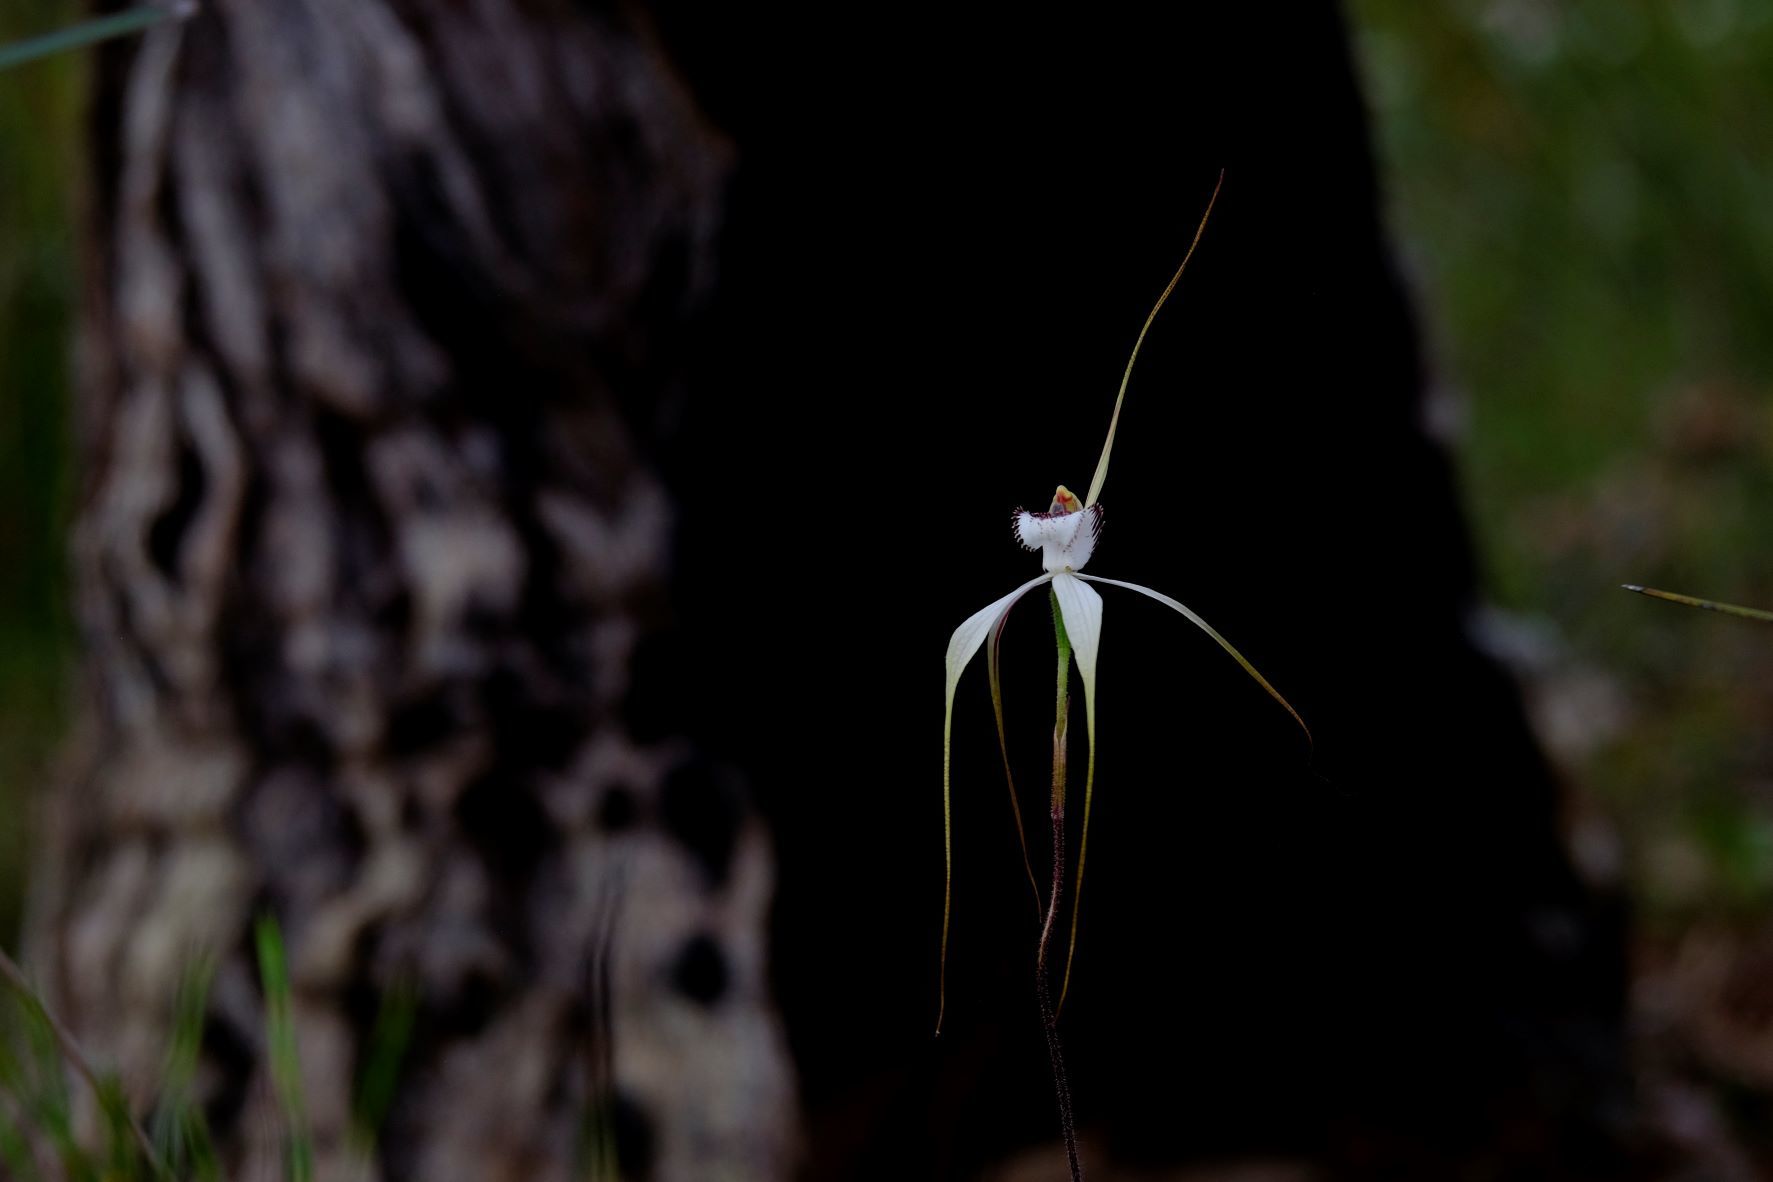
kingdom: Plantae
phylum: Tracheophyta
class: Liliopsida
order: Asparagales
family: Orchidaceae
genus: Caladenia
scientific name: Caladenia venusta
